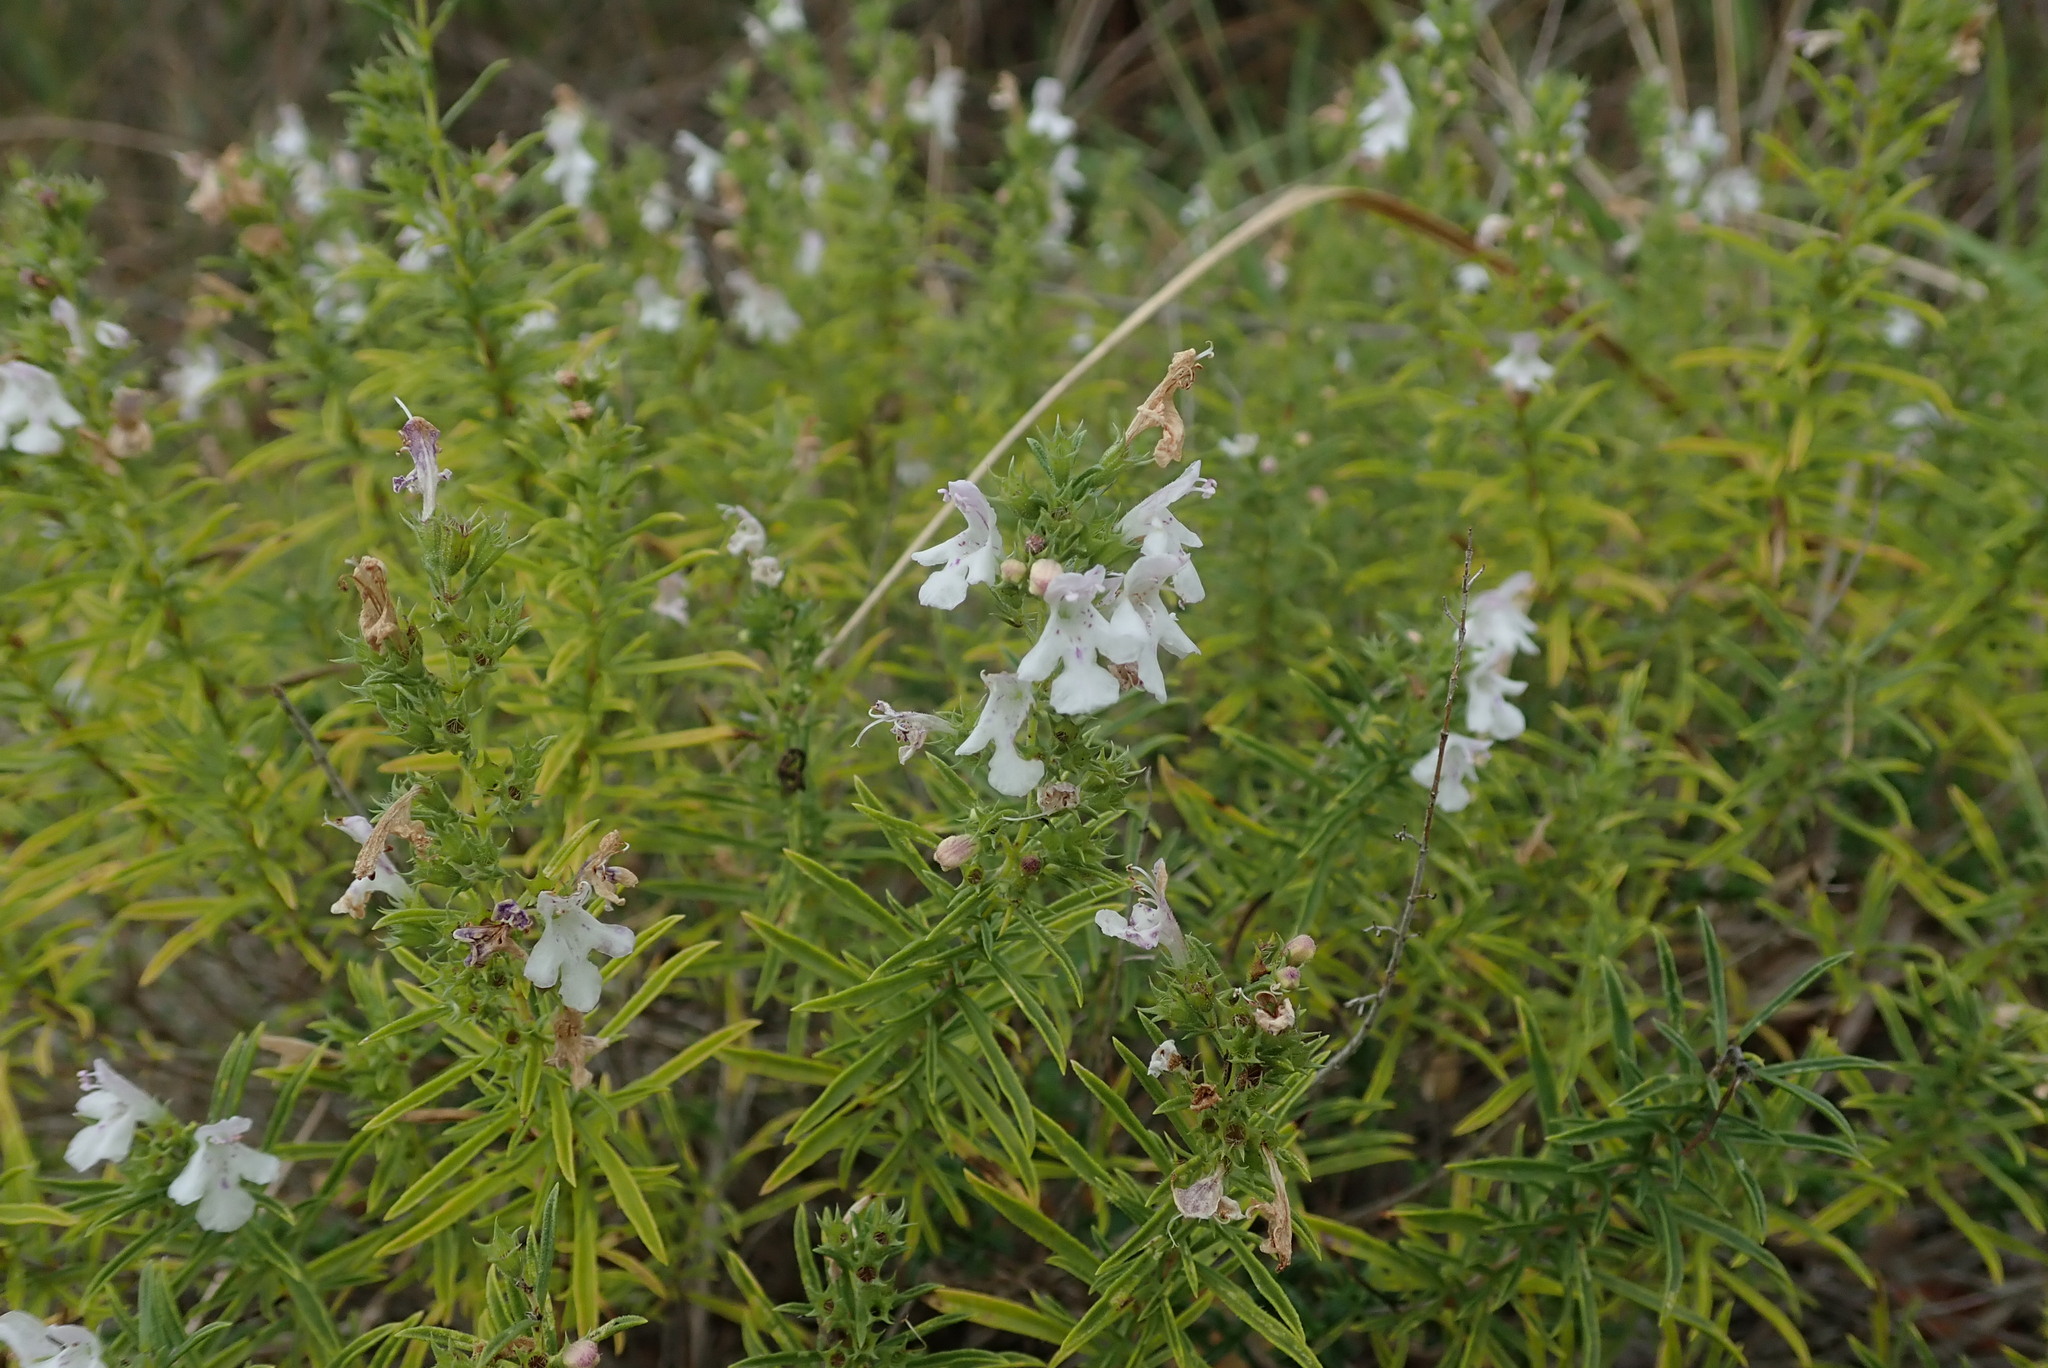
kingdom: Plantae
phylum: Tracheophyta
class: Magnoliopsida
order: Lamiales
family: Lamiaceae
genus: Satureja
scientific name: Satureja montana
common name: Winter savory
